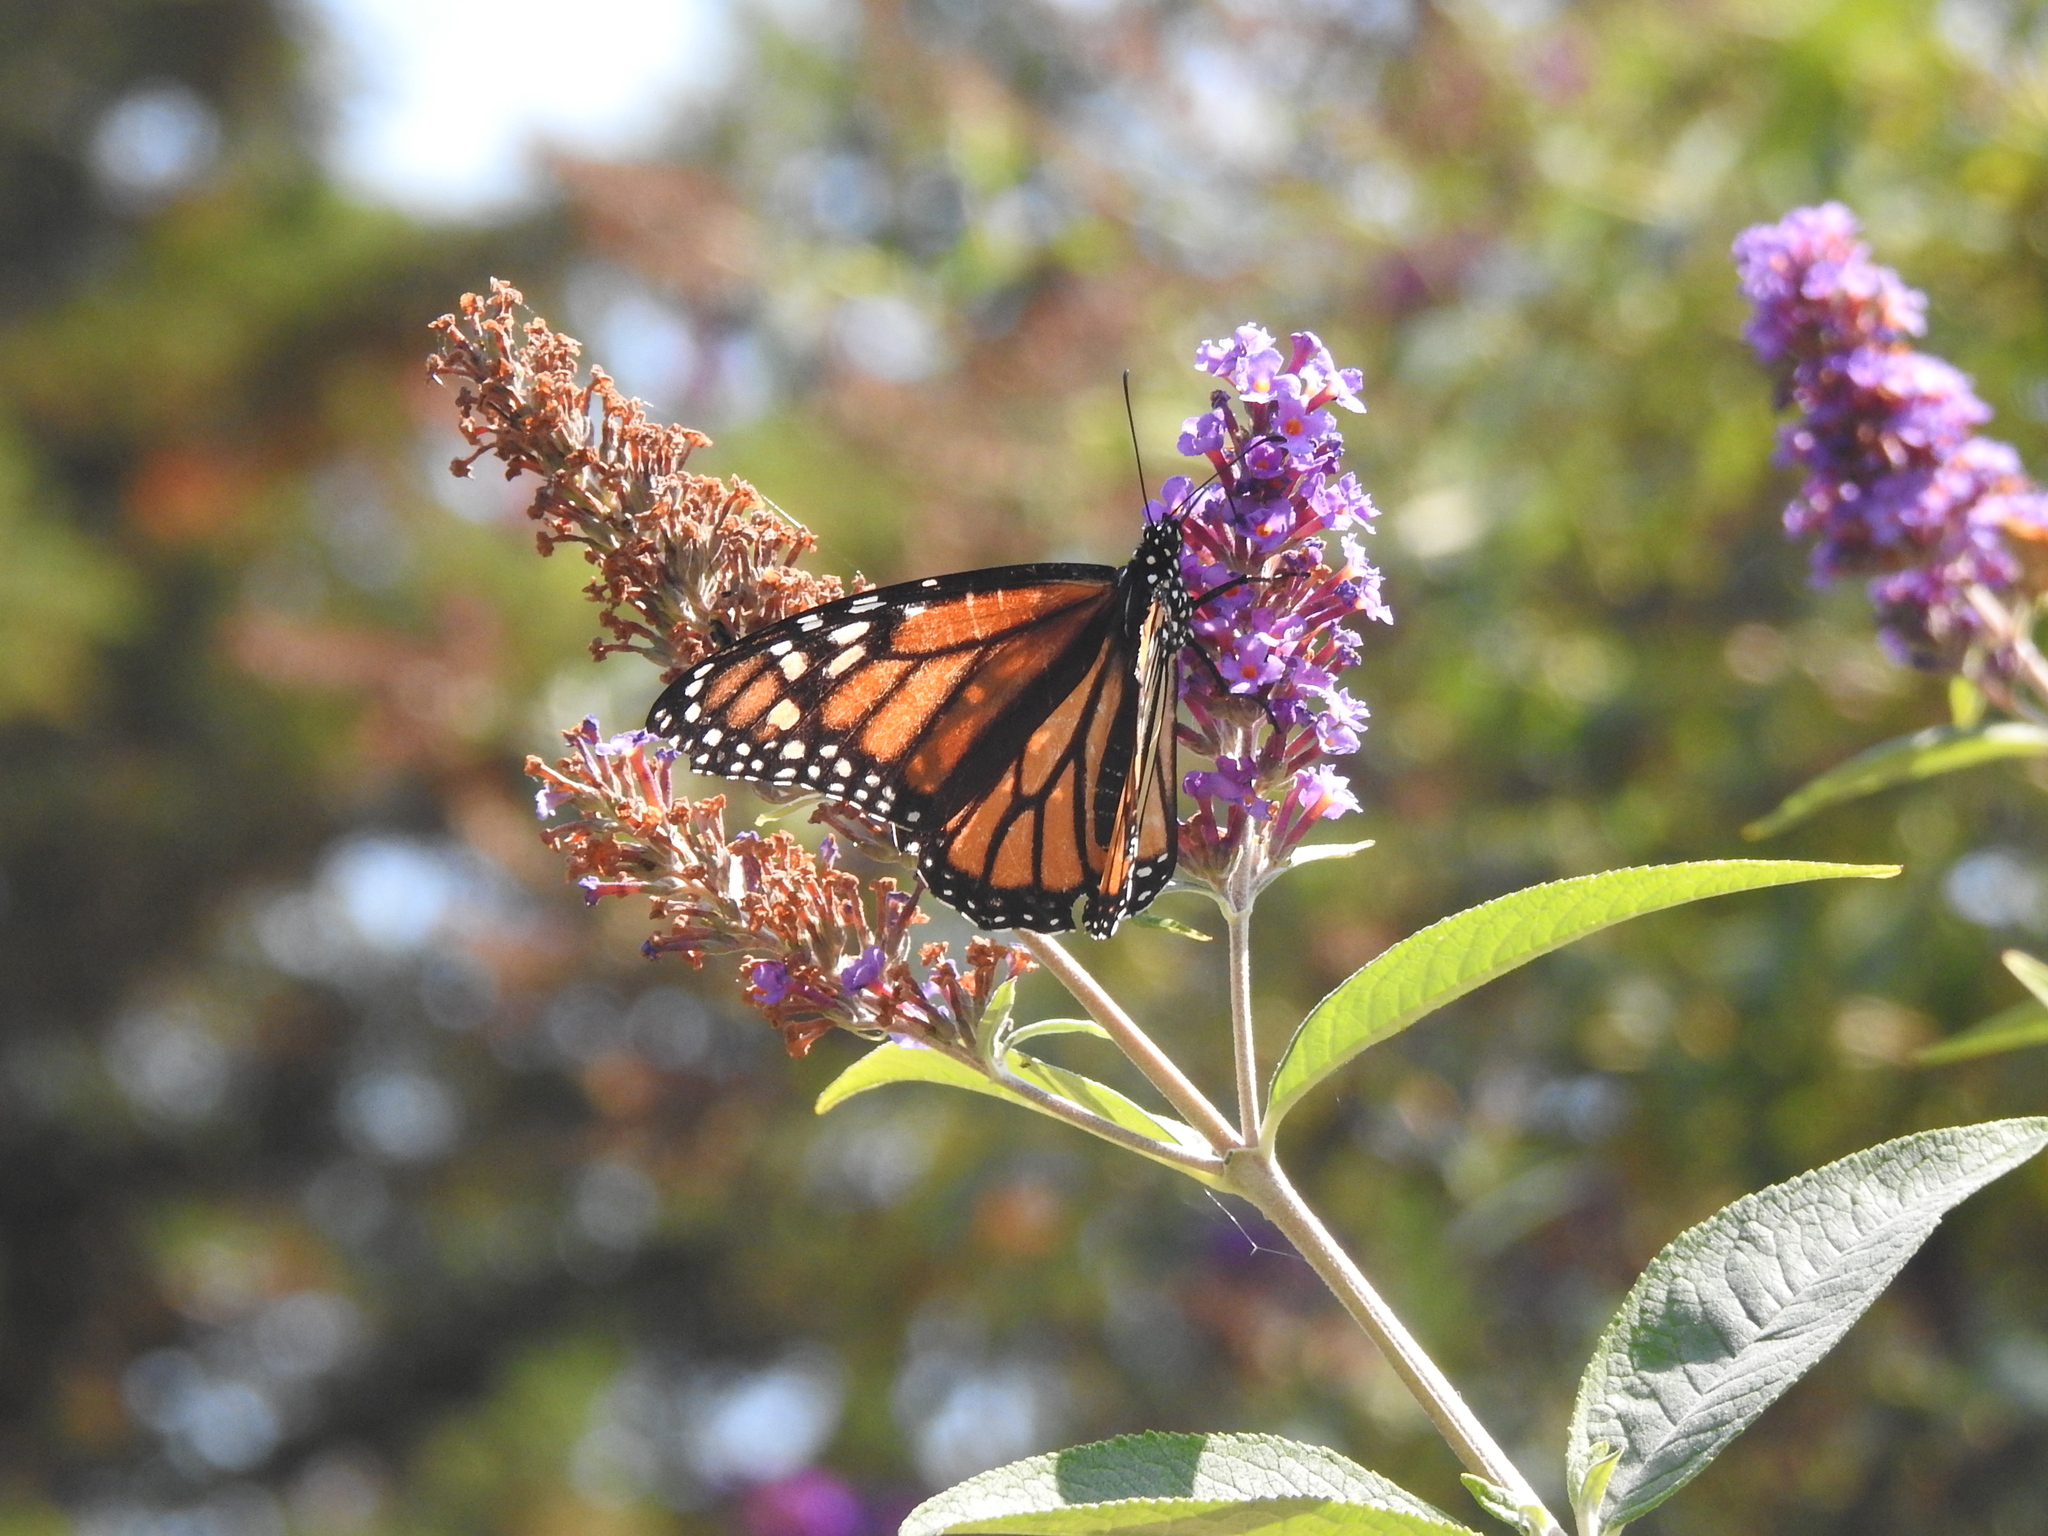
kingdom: Animalia
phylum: Arthropoda
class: Insecta
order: Lepidoptera
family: Nymphalidae
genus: Danaus
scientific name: Danaus plexippus
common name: Monarch
